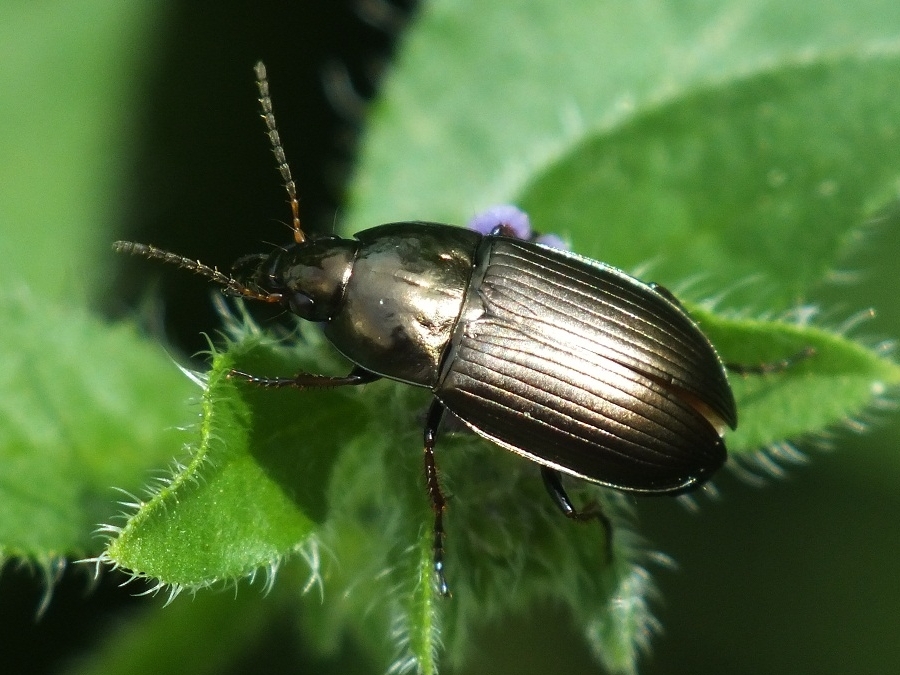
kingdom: Animalia
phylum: Arthropoda
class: Insecta
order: Coleoptera
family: Carabidae
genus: Amara
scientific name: Amara similata
